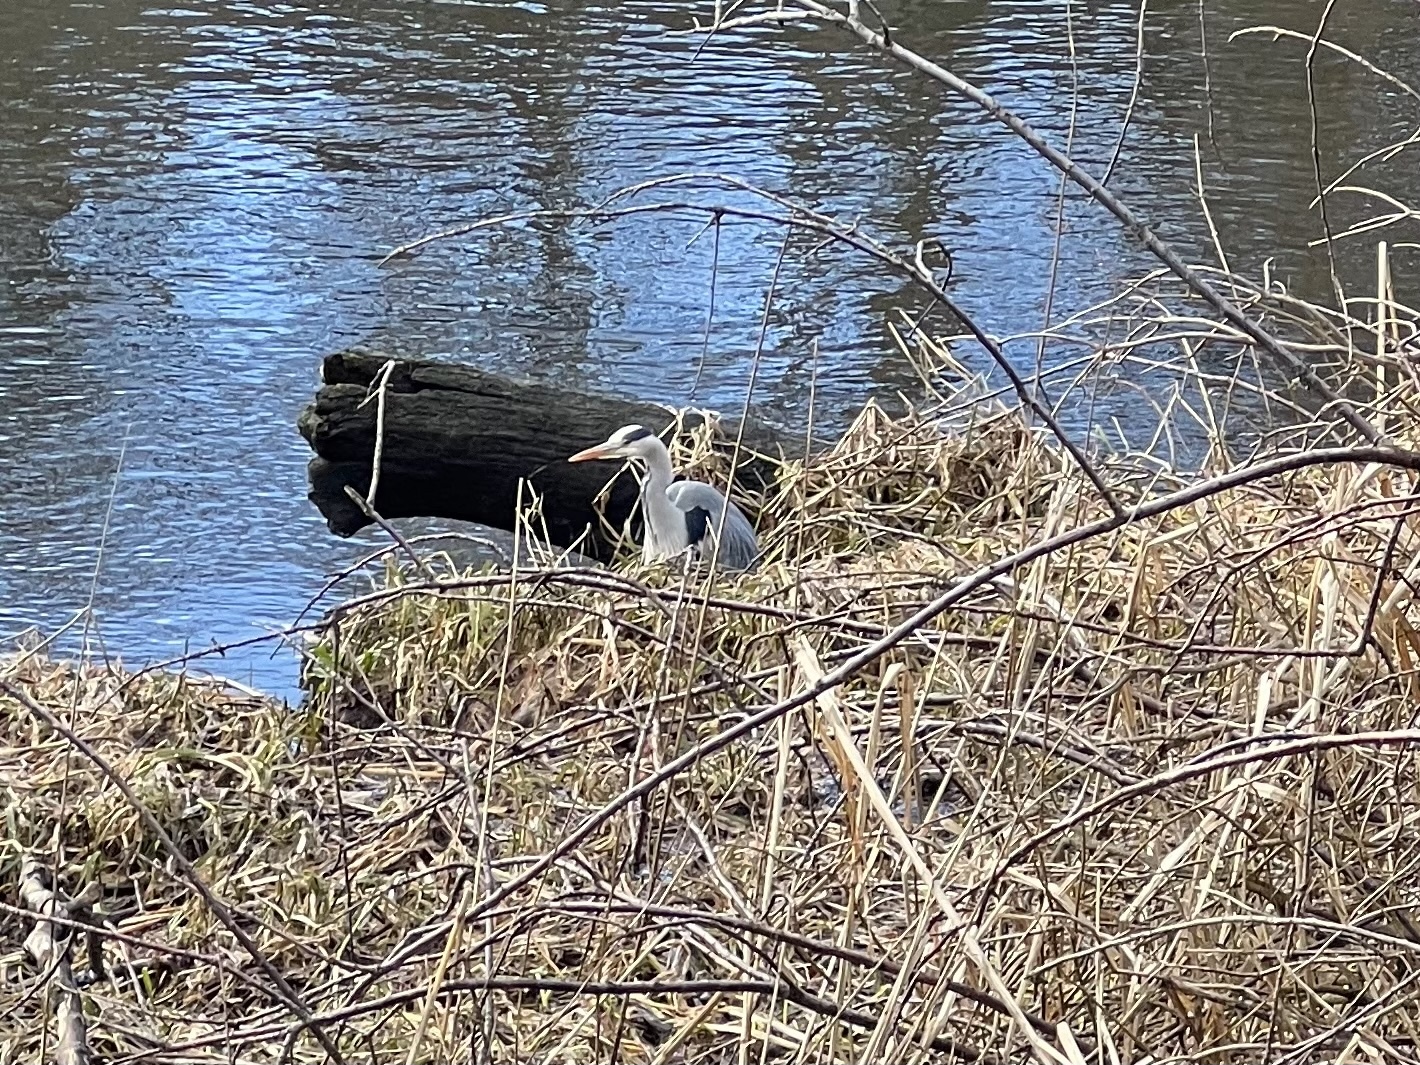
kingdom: Animalia
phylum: Chordata
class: Aves
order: Pelecaniformes
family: Ardeidae
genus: Ardea
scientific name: Ardea cinerea
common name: Grey heron
